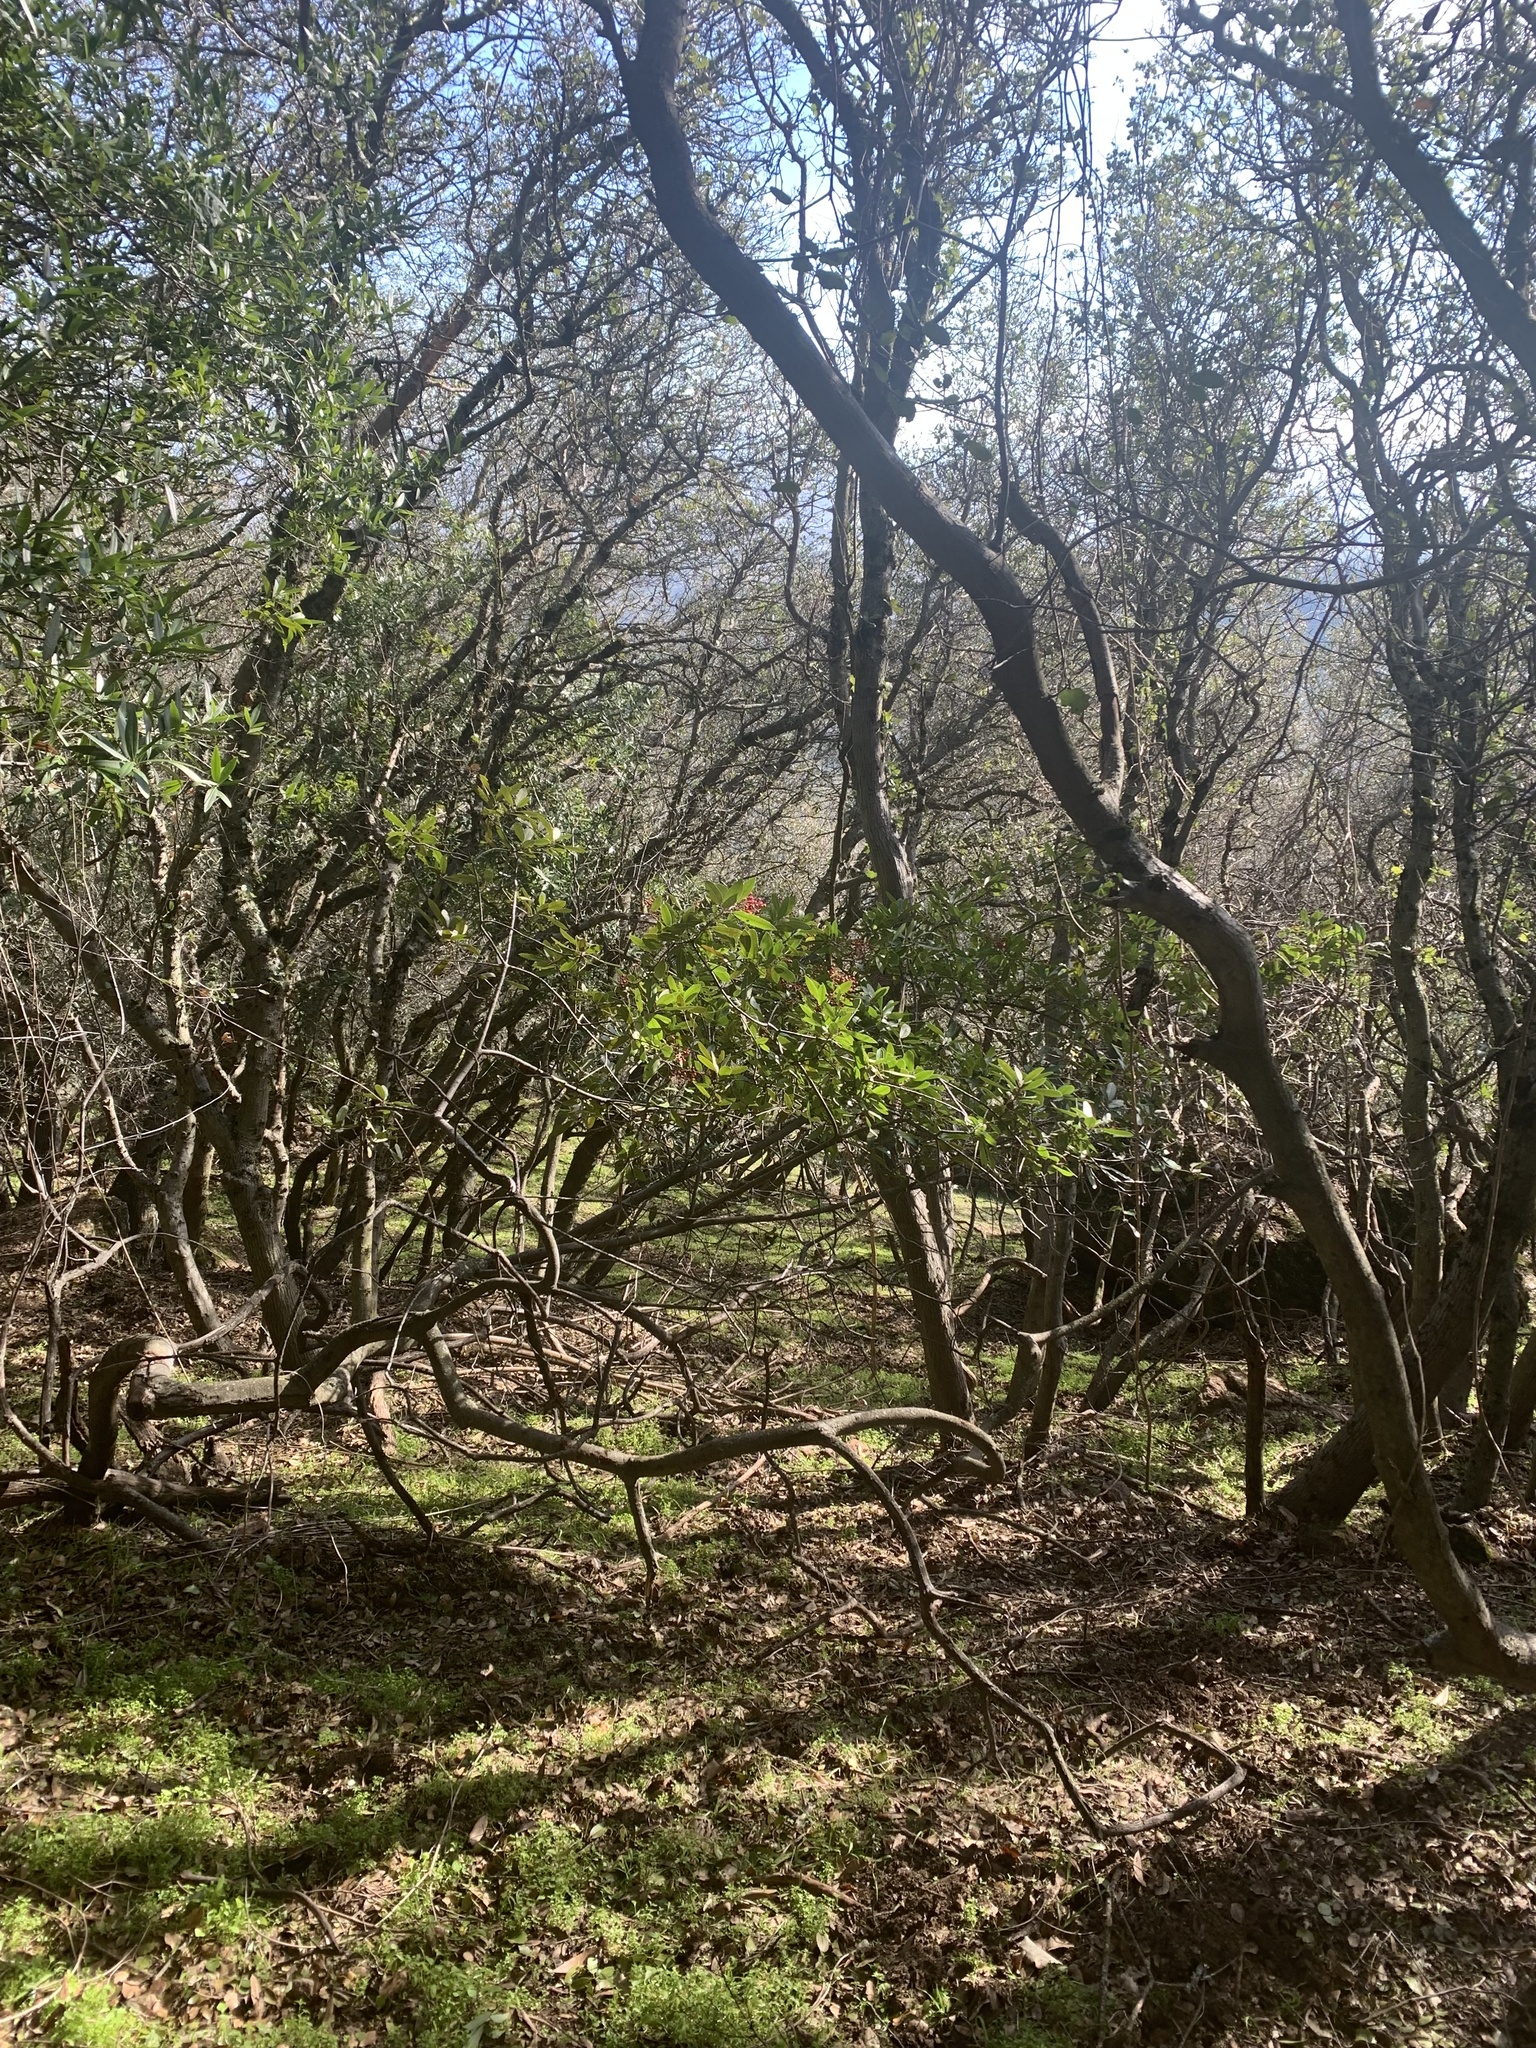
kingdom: Plantae
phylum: Tracheophyta
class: Magnoliopsida
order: Rosales
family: Rosaceae
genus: Heteromeles
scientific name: Heteromeles arbutifolia
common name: California-holly
